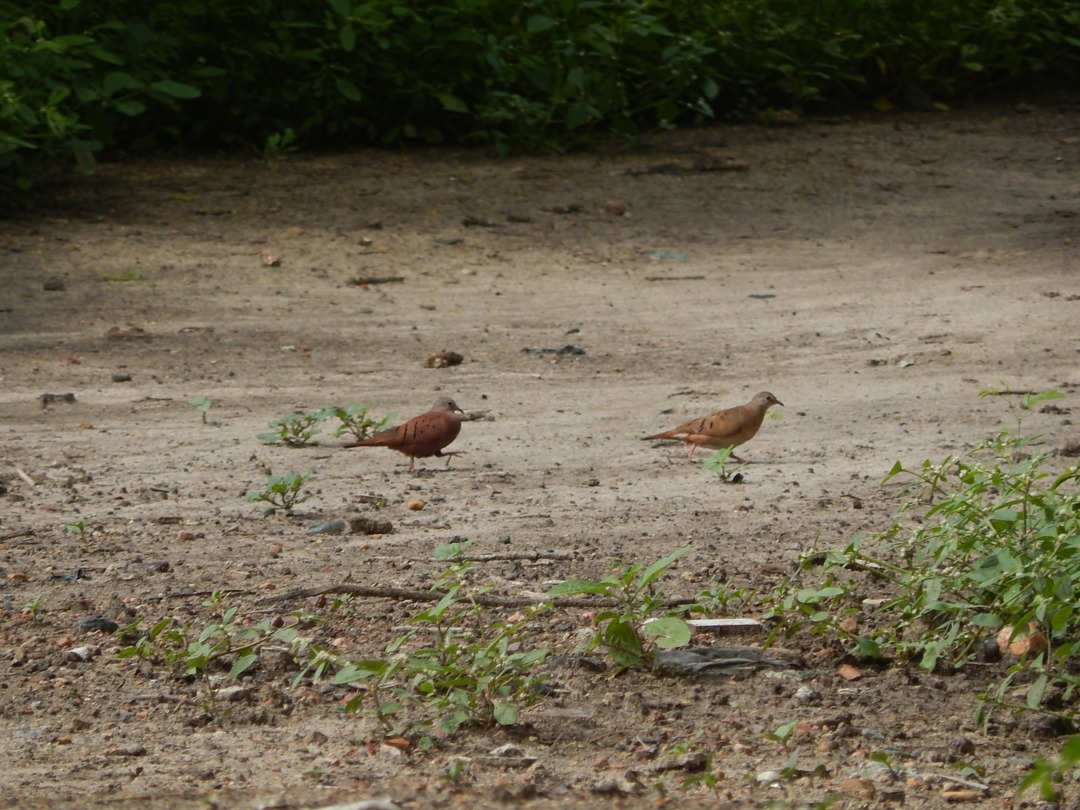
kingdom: Animalia
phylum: Chordata
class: Aves
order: Columbiformes
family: Columbidae
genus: Columbina
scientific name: Columbina talpacoti
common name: Ruddy ground dove
